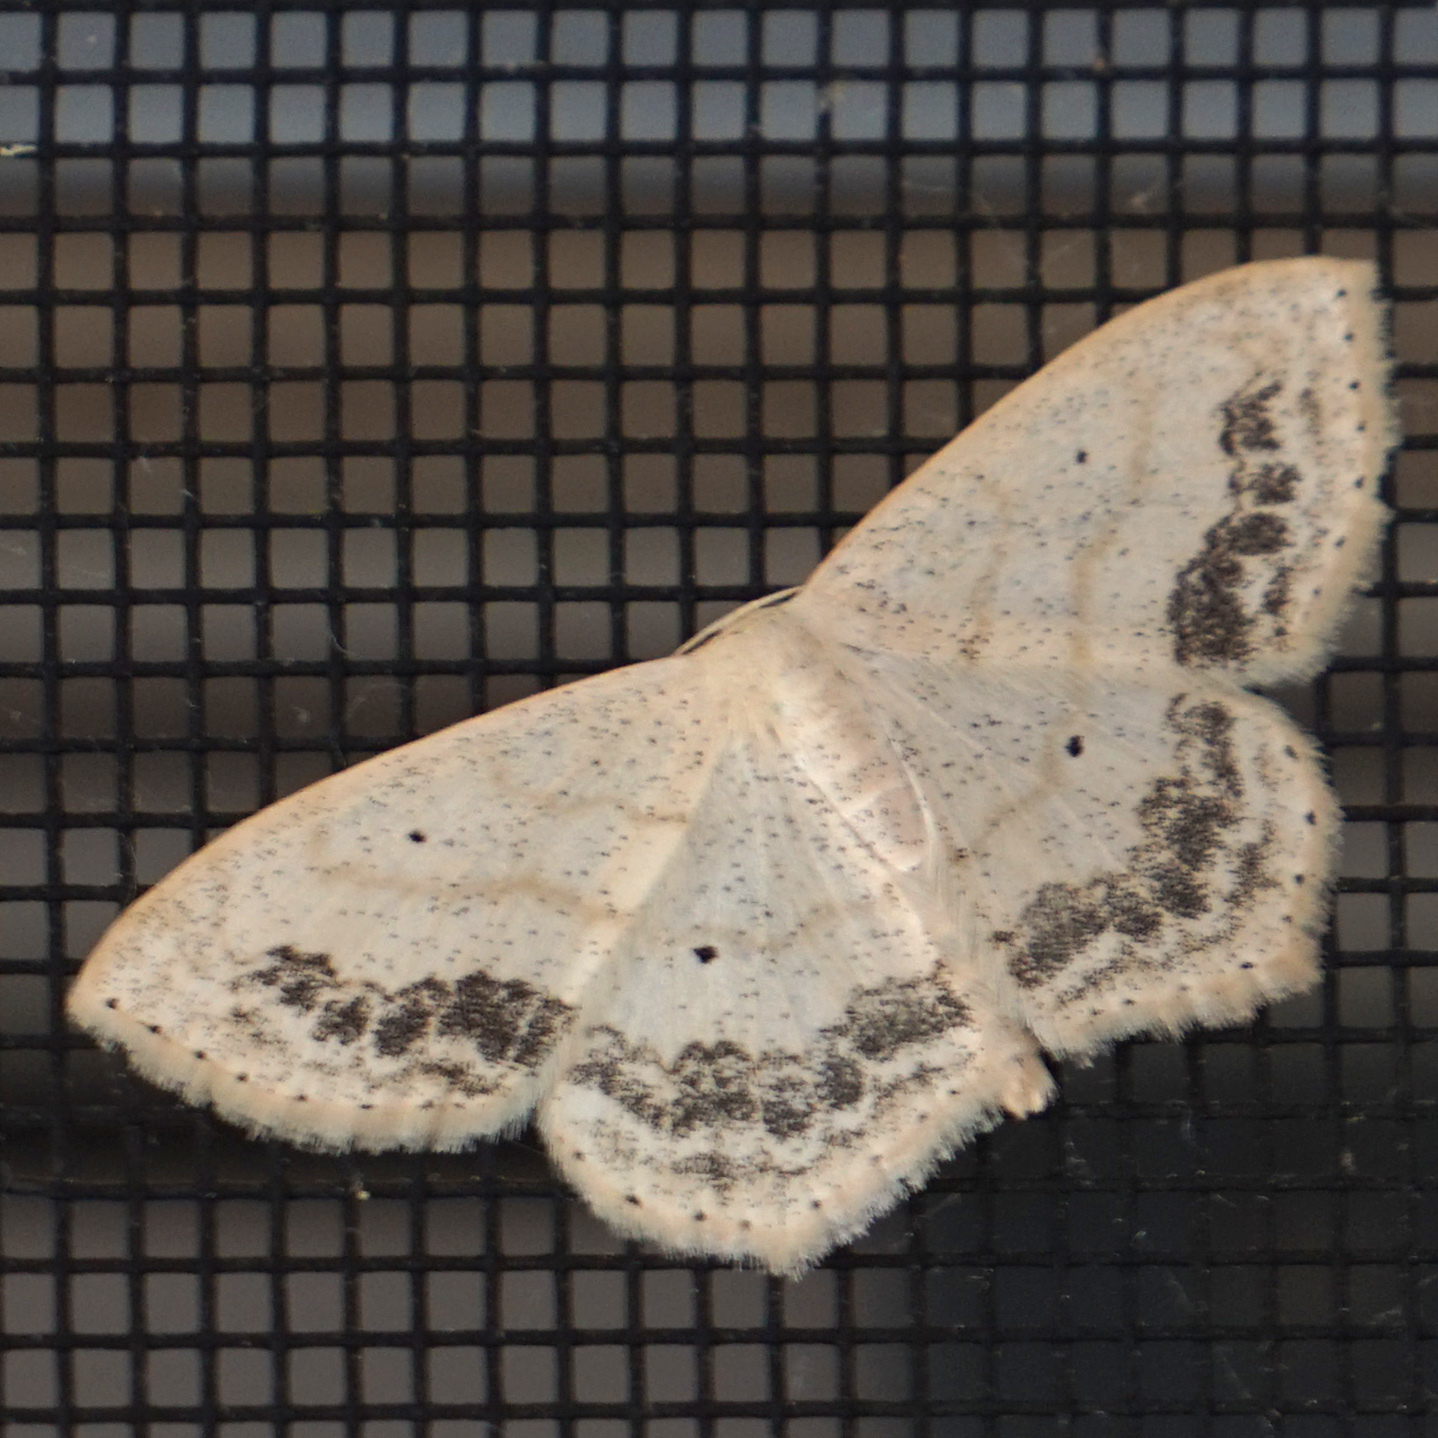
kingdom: Animalia
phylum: Arthropoda
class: Insecta
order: Lepidoptera
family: Geometridae
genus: Scopula
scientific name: Scopula limboundata
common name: Large lace border
